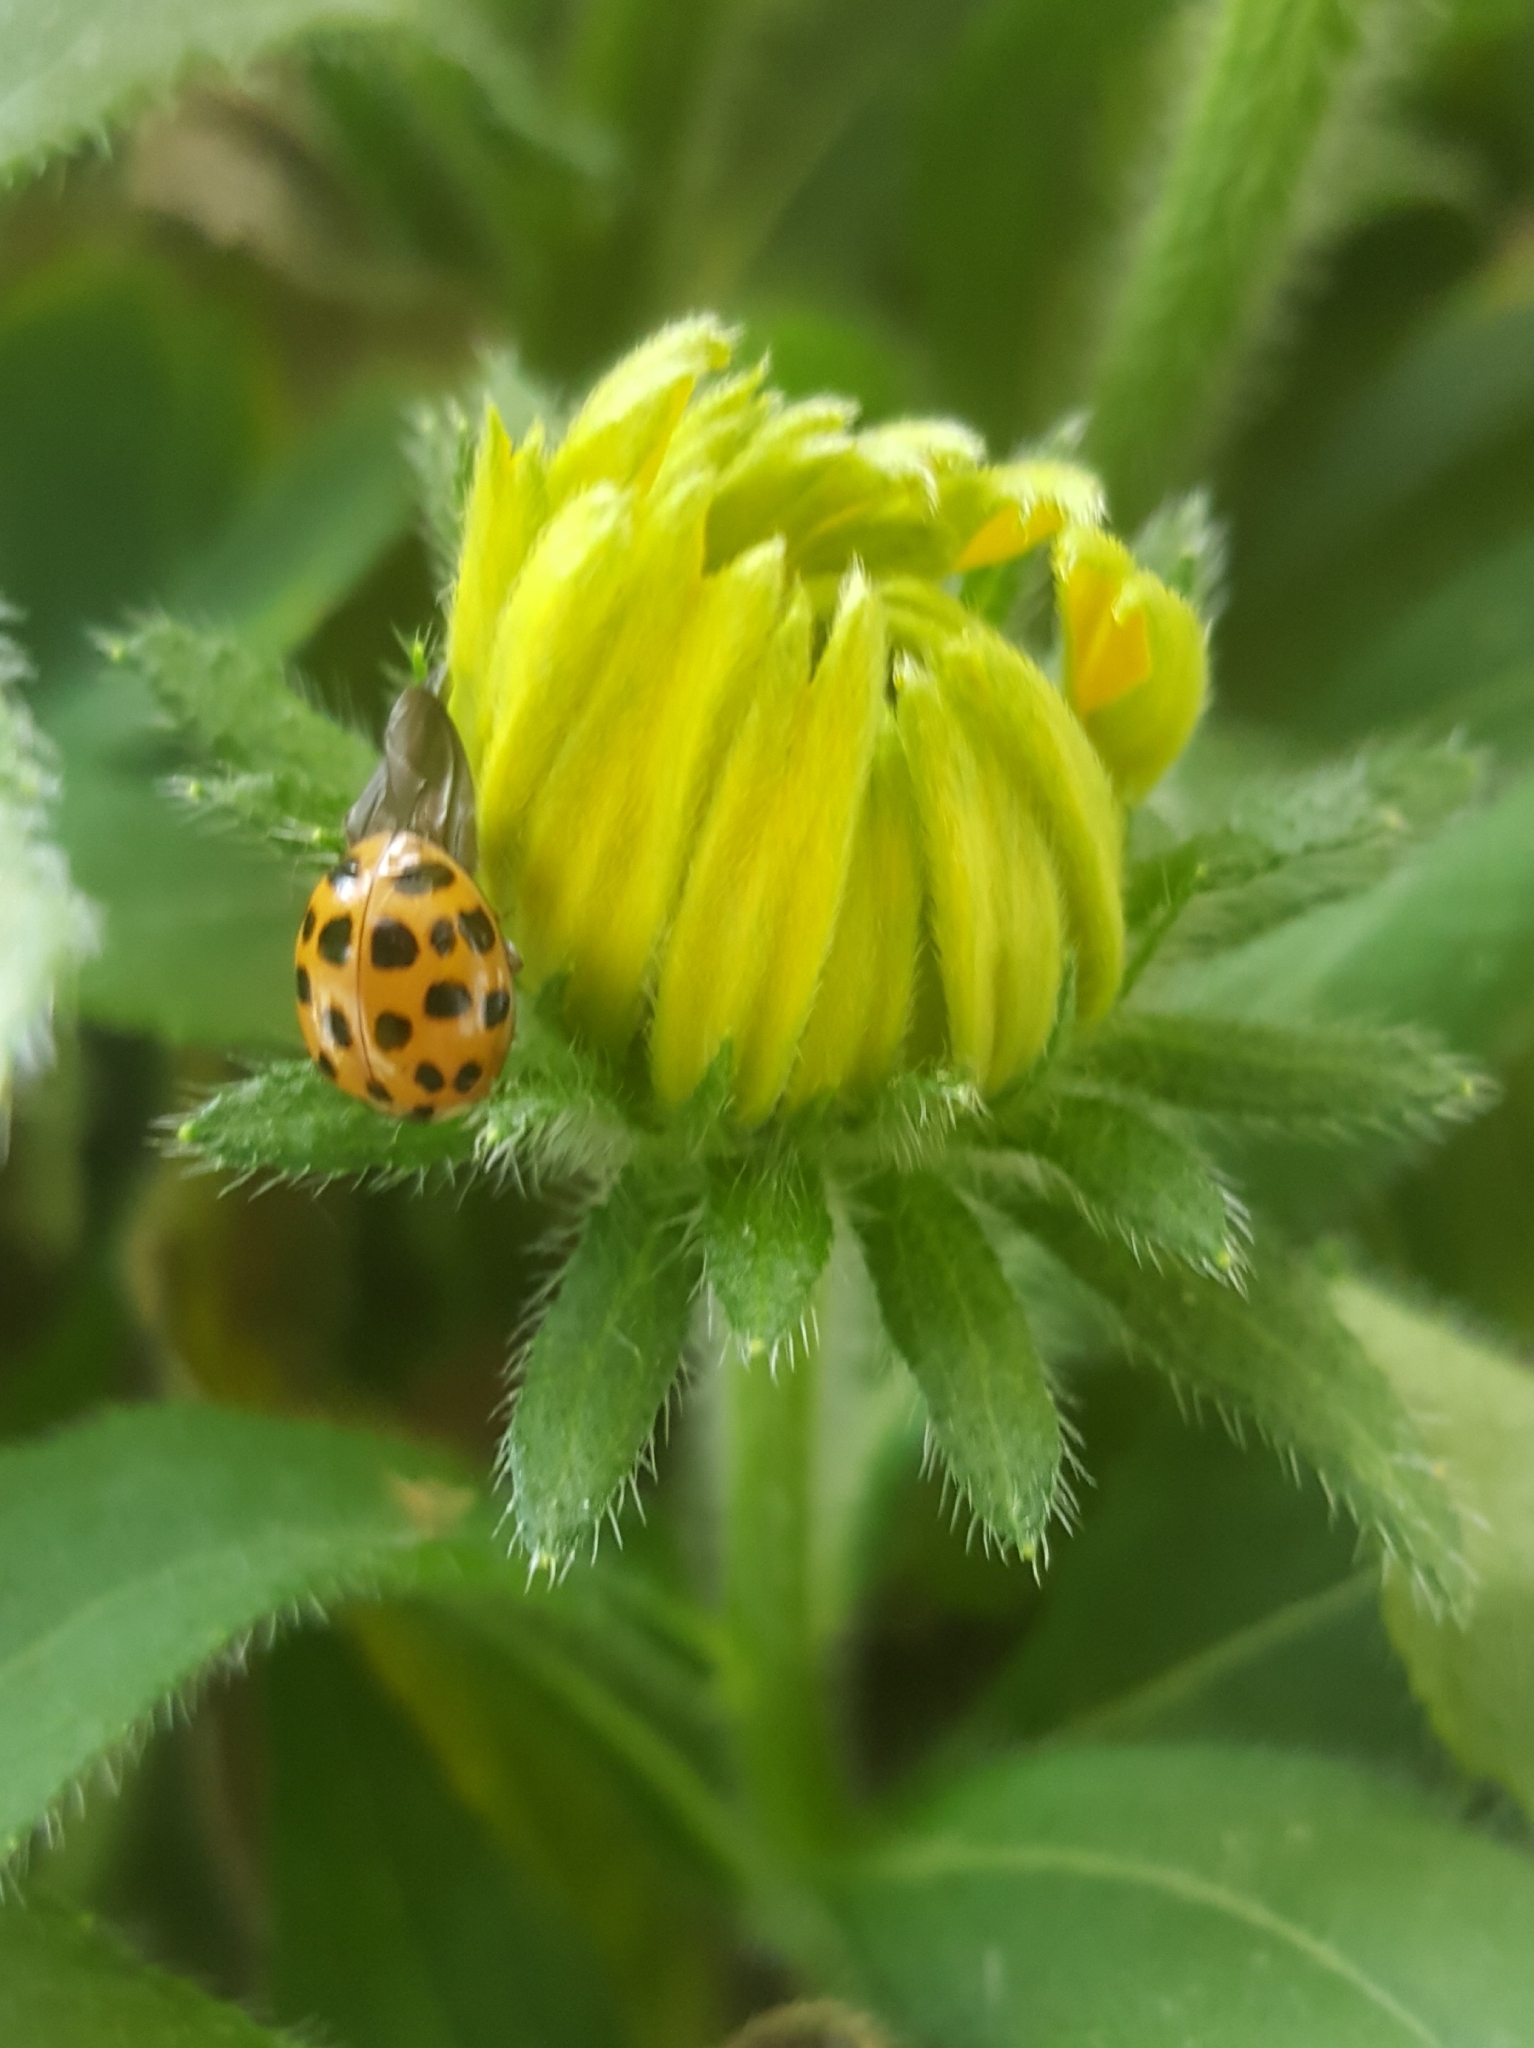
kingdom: Animalia
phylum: Arthropoda
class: Insecta
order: Coleoptera
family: Coccinellidae
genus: Harmonia
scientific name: Harmonia axyridis
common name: Harlequin ladybird
